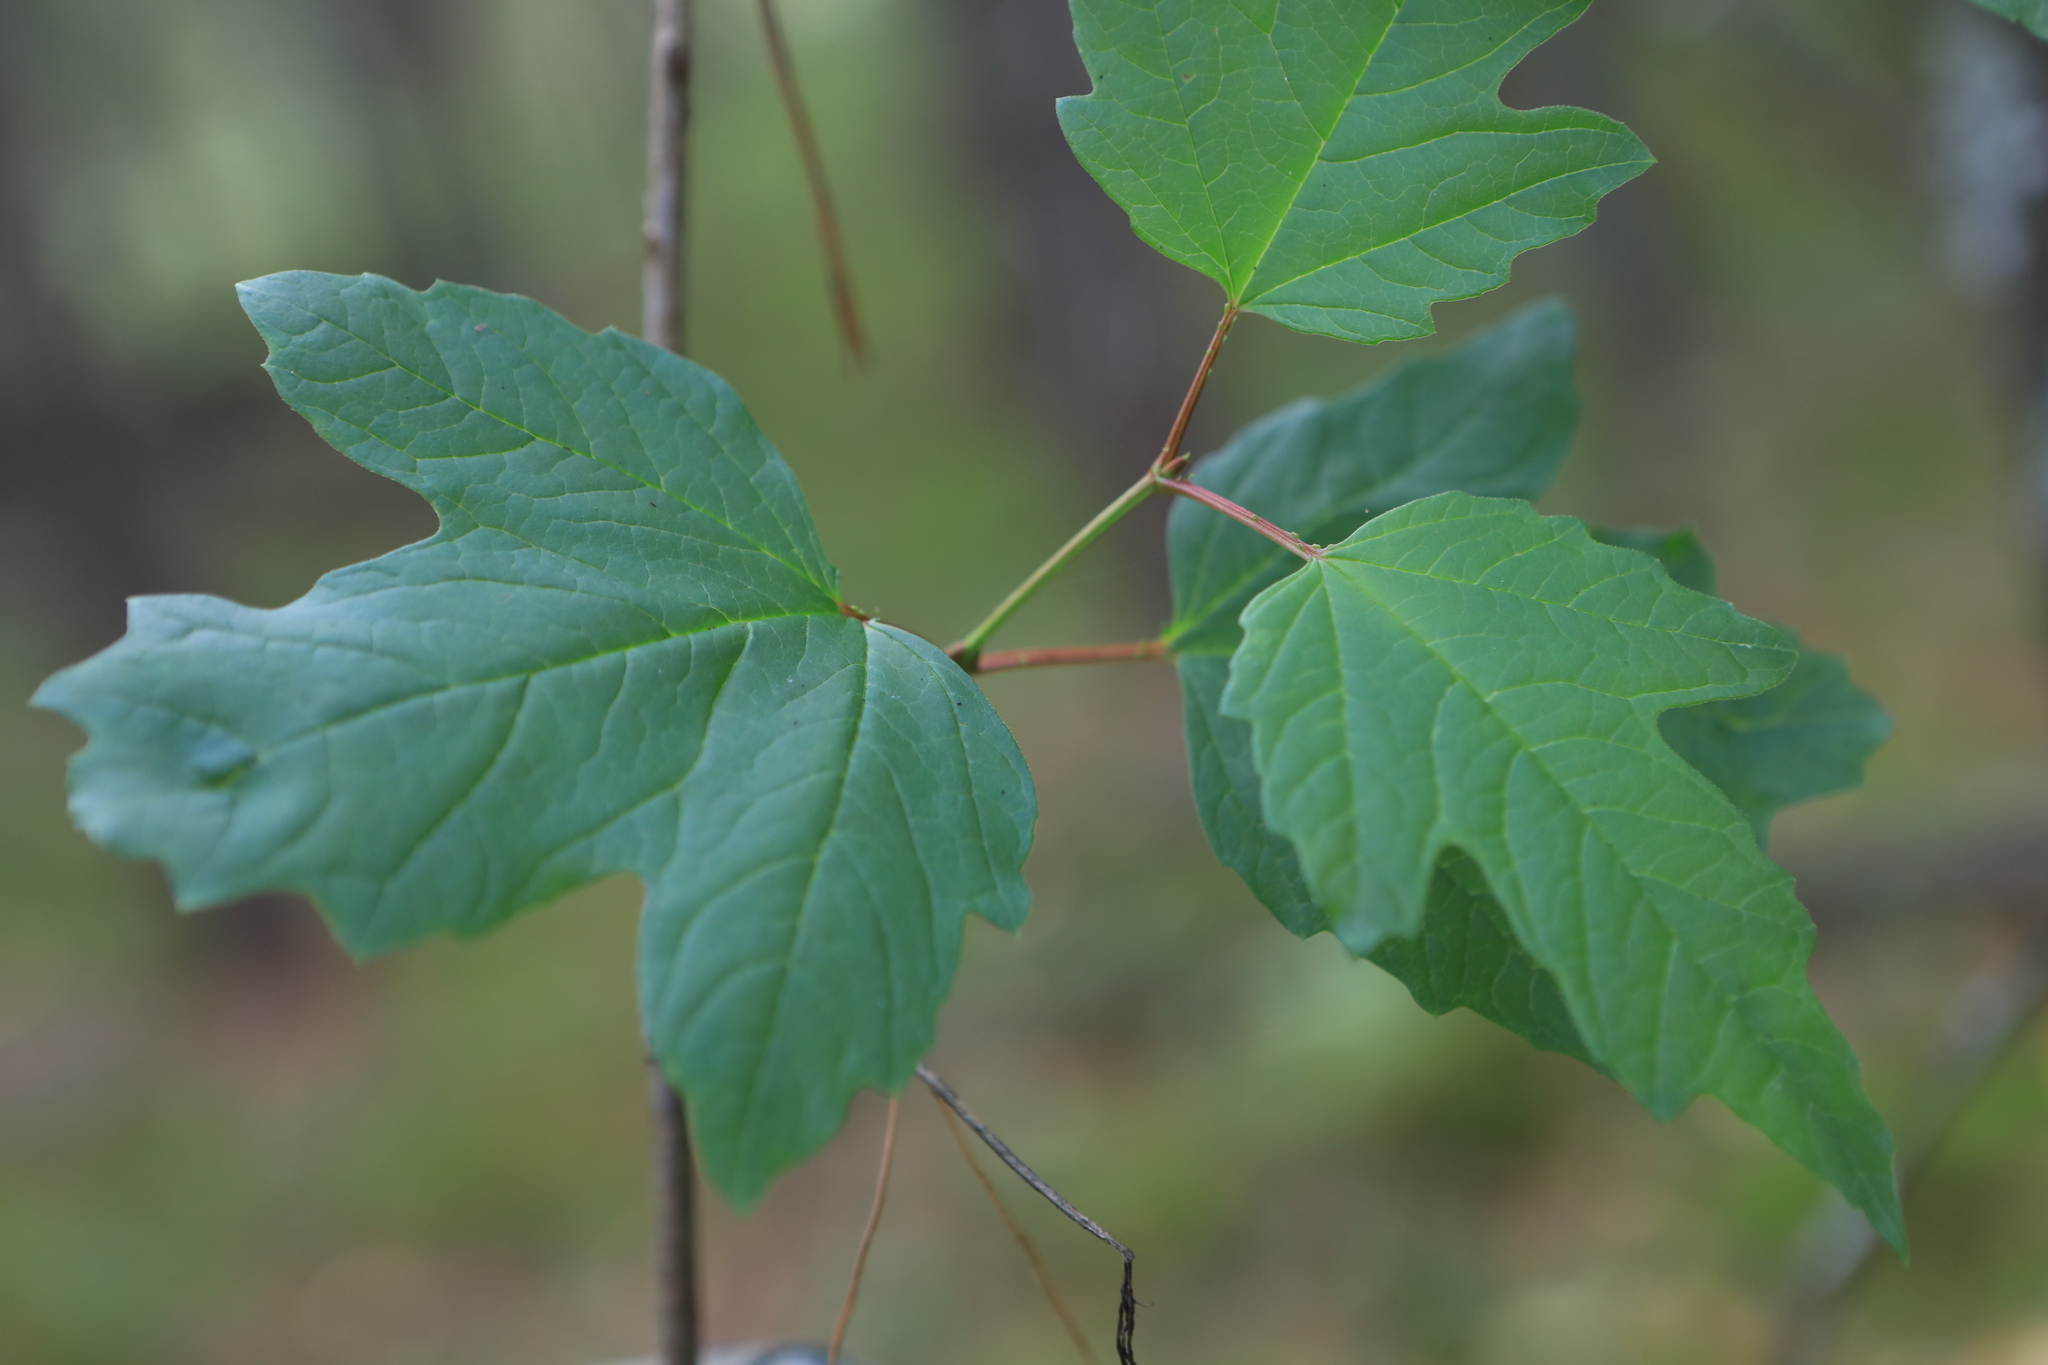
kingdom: Plantae
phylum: Tracheophyta
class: Magnoliopsida
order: Dipsacales
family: Viburnaceae
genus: Viburnum
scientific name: Viburnum opulus
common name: Guelder-rose
